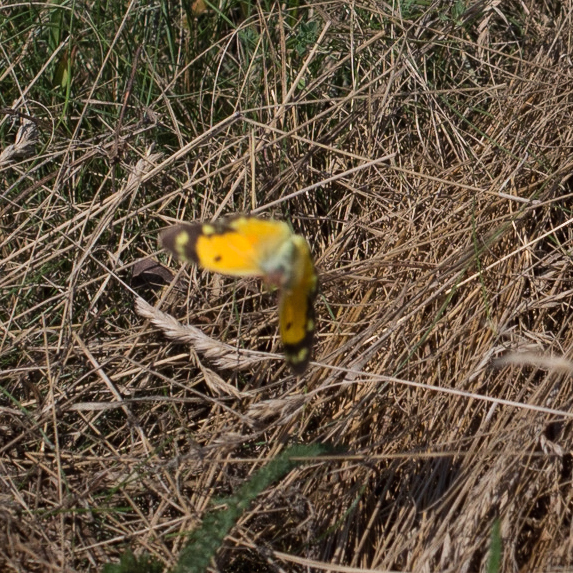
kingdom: Animalia
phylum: Arthropoda
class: Insecta
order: Lepidoptera
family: Pieridae
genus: Colias
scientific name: Colias croceus
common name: Clouded yellow
